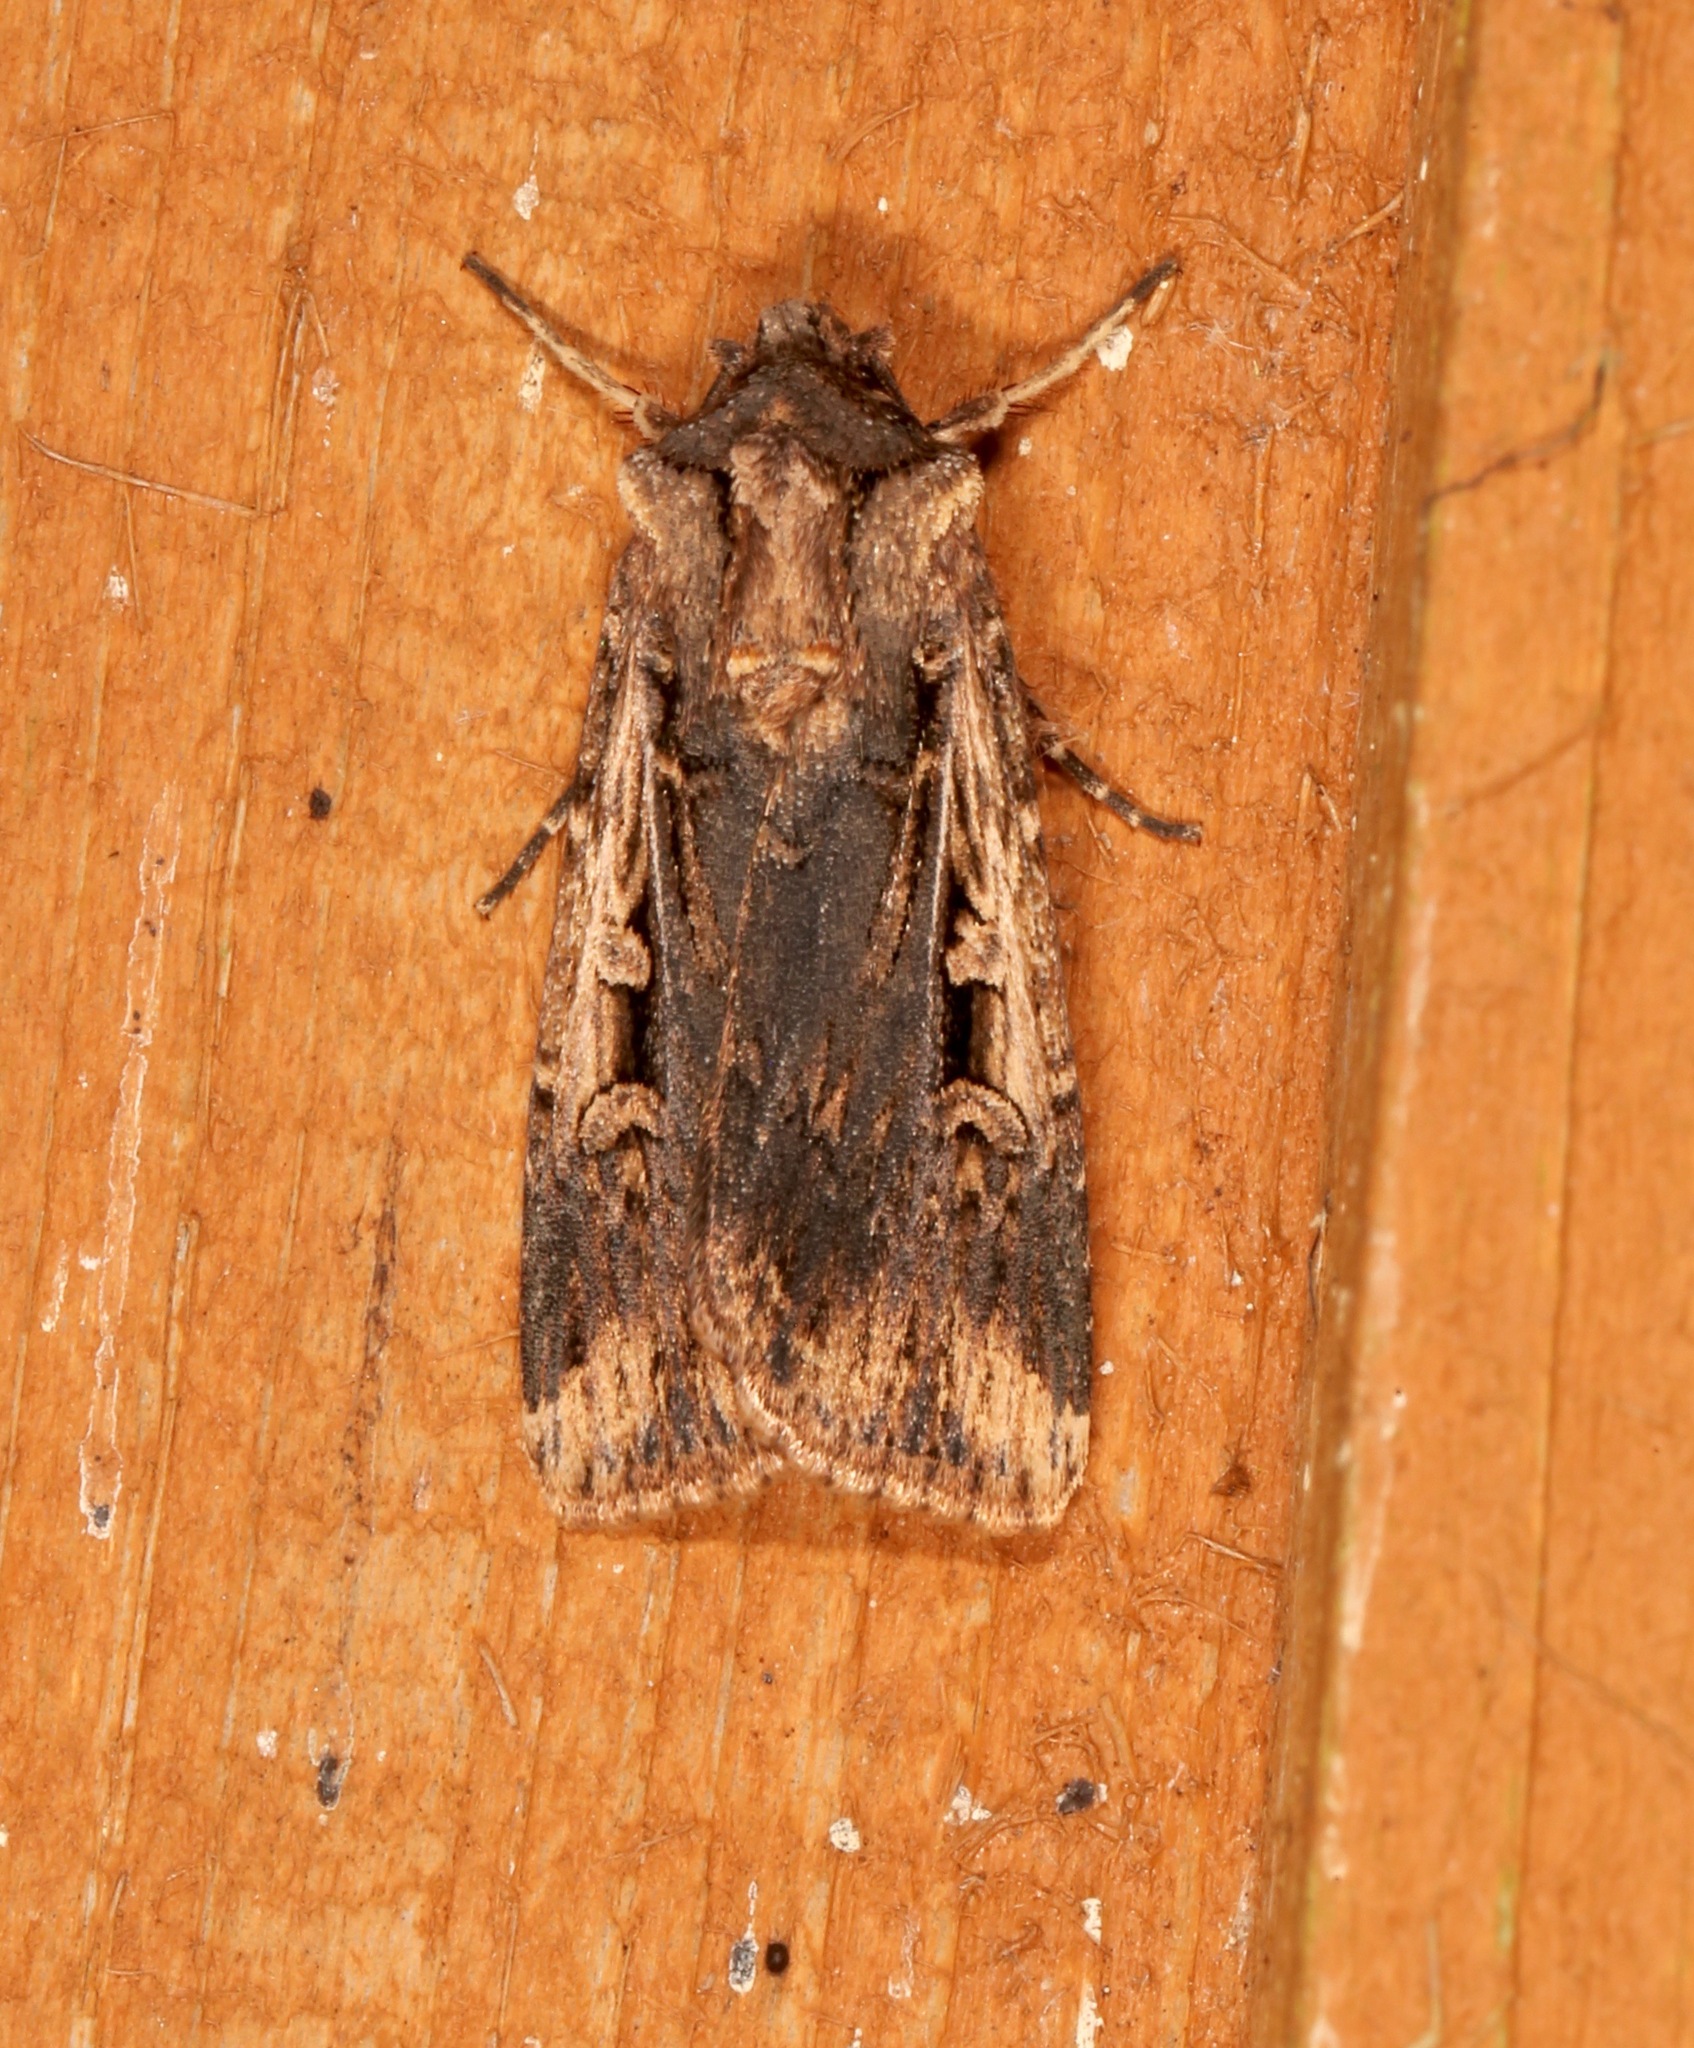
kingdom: Animalia
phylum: Arthropoda
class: Insecta
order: Lepidoptera
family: Noctuidae
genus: Feltia
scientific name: Feltia subterranea
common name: Granulate cutworm
